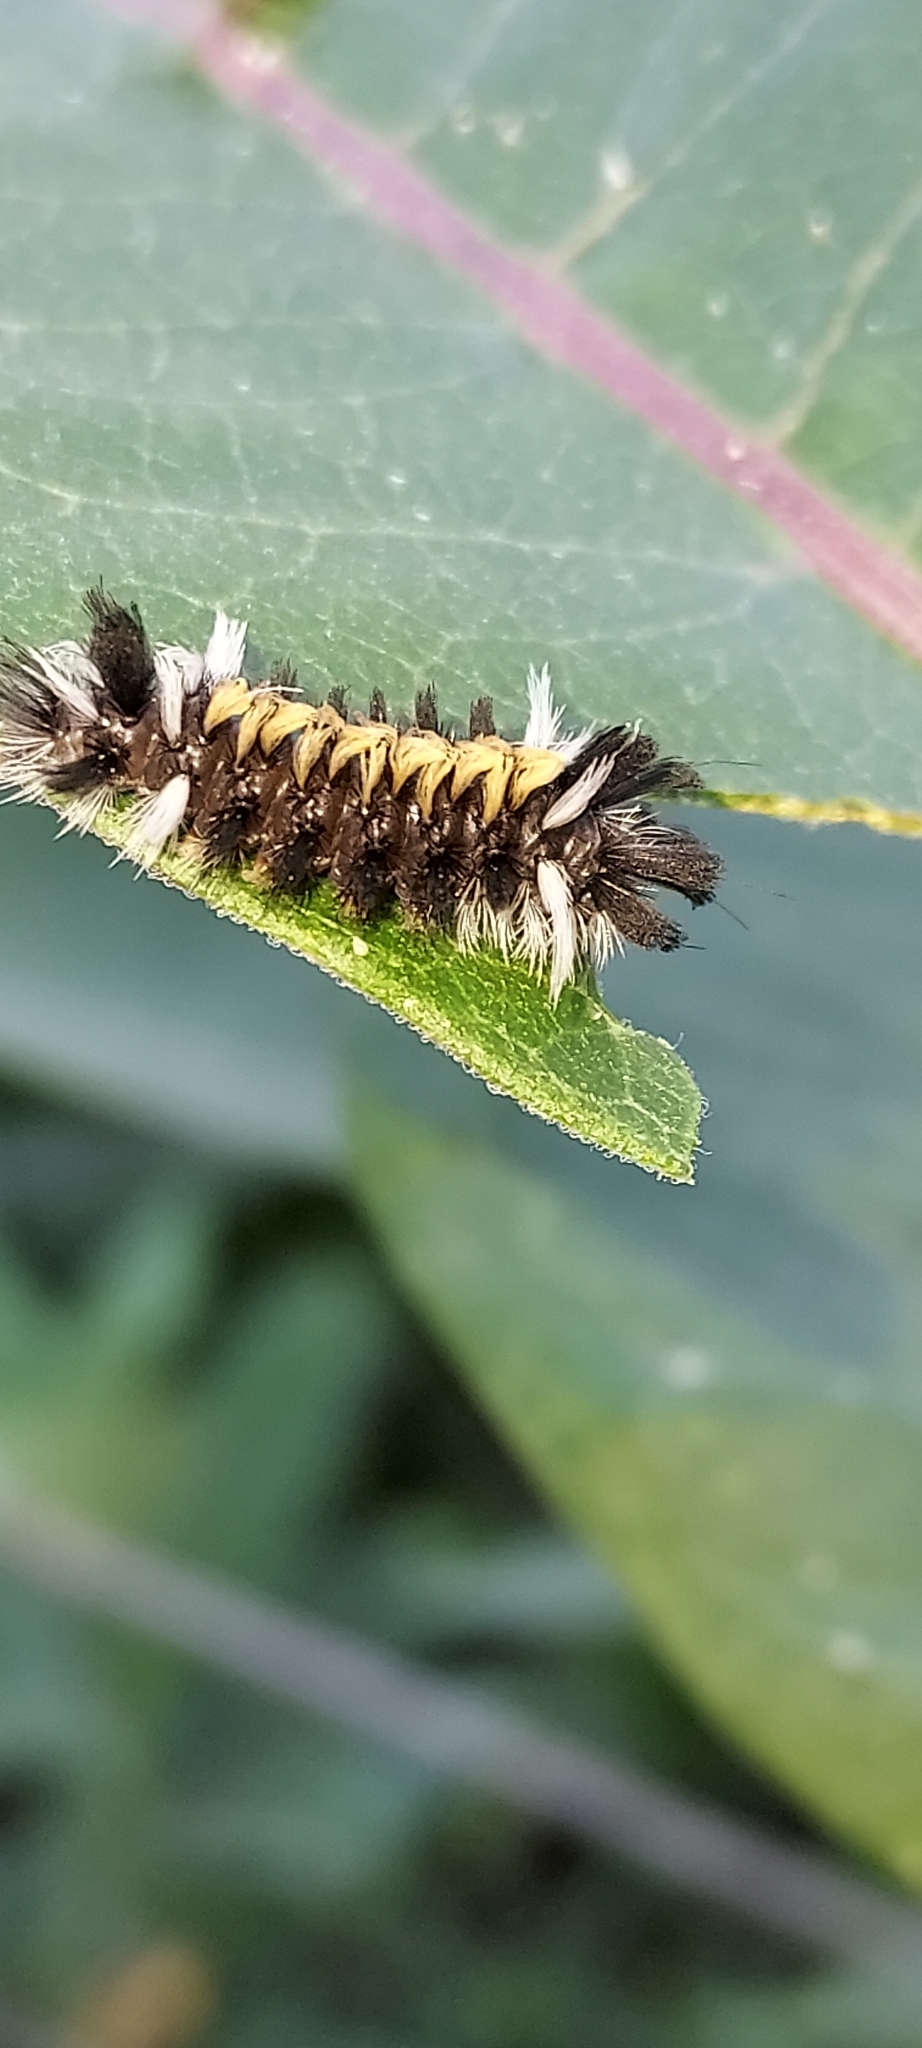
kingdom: Animalia
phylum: Arthropoda
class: Insecta
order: Lepidoptera
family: Erebidae
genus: Euchaetes
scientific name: Euchaetes egle
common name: Milkweed tussock moth
